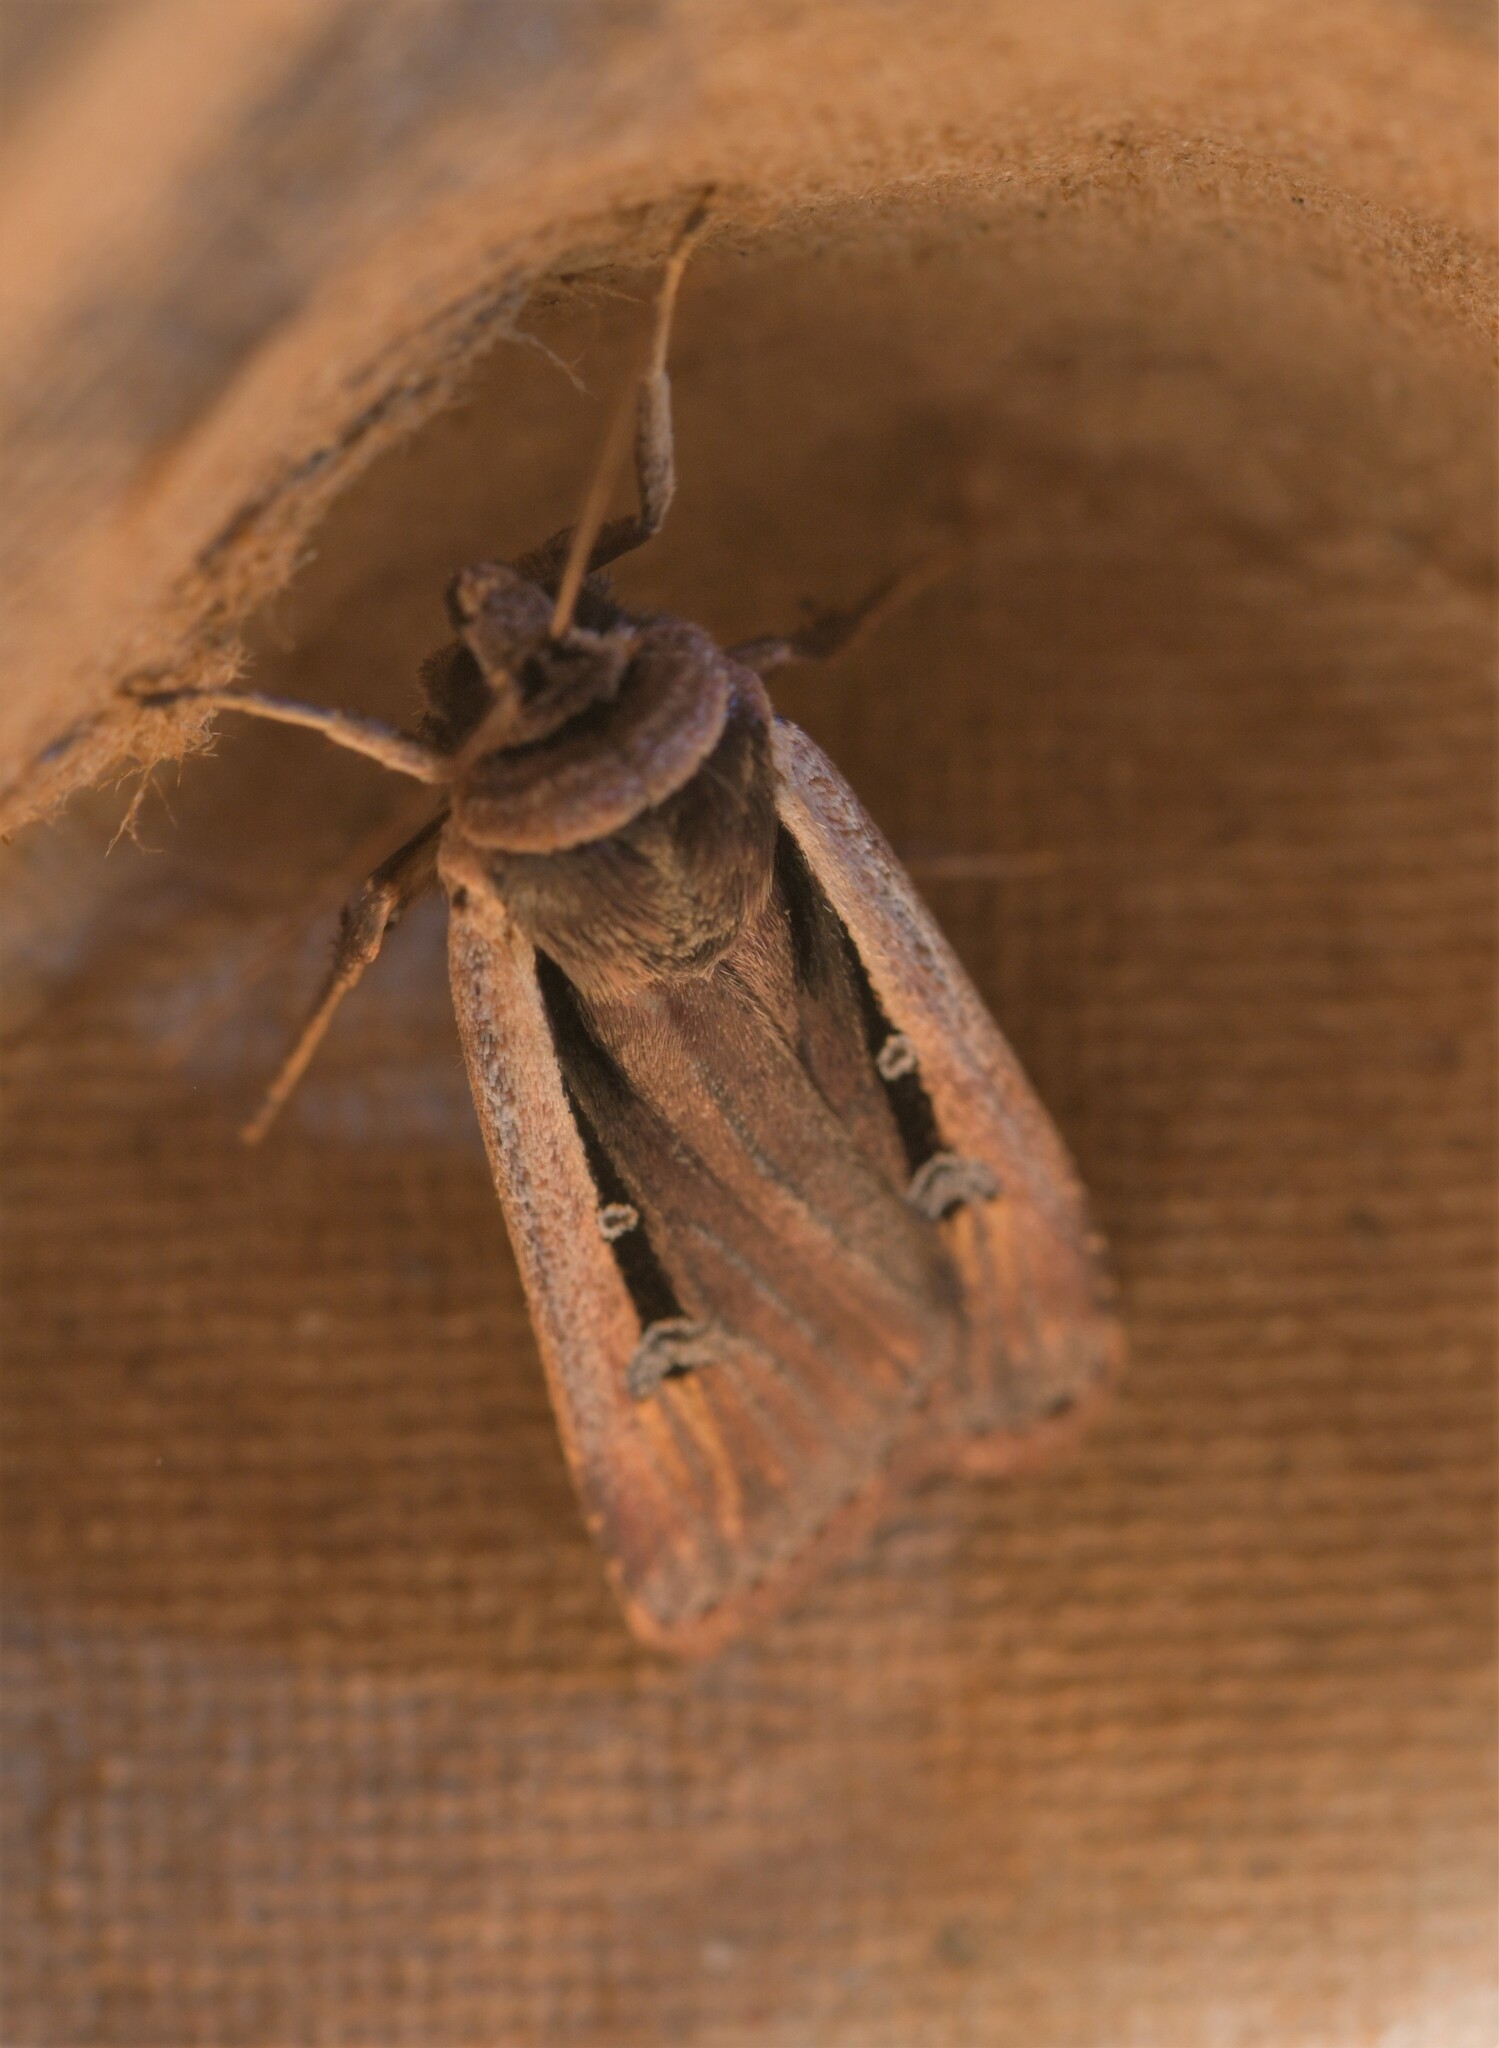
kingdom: Animalia
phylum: Arthropoda
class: Insecta
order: Lepidoptera
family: Noctuidae
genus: Ochropleura
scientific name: Ochropleura leucogaster
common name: Radford's flame shoulder
